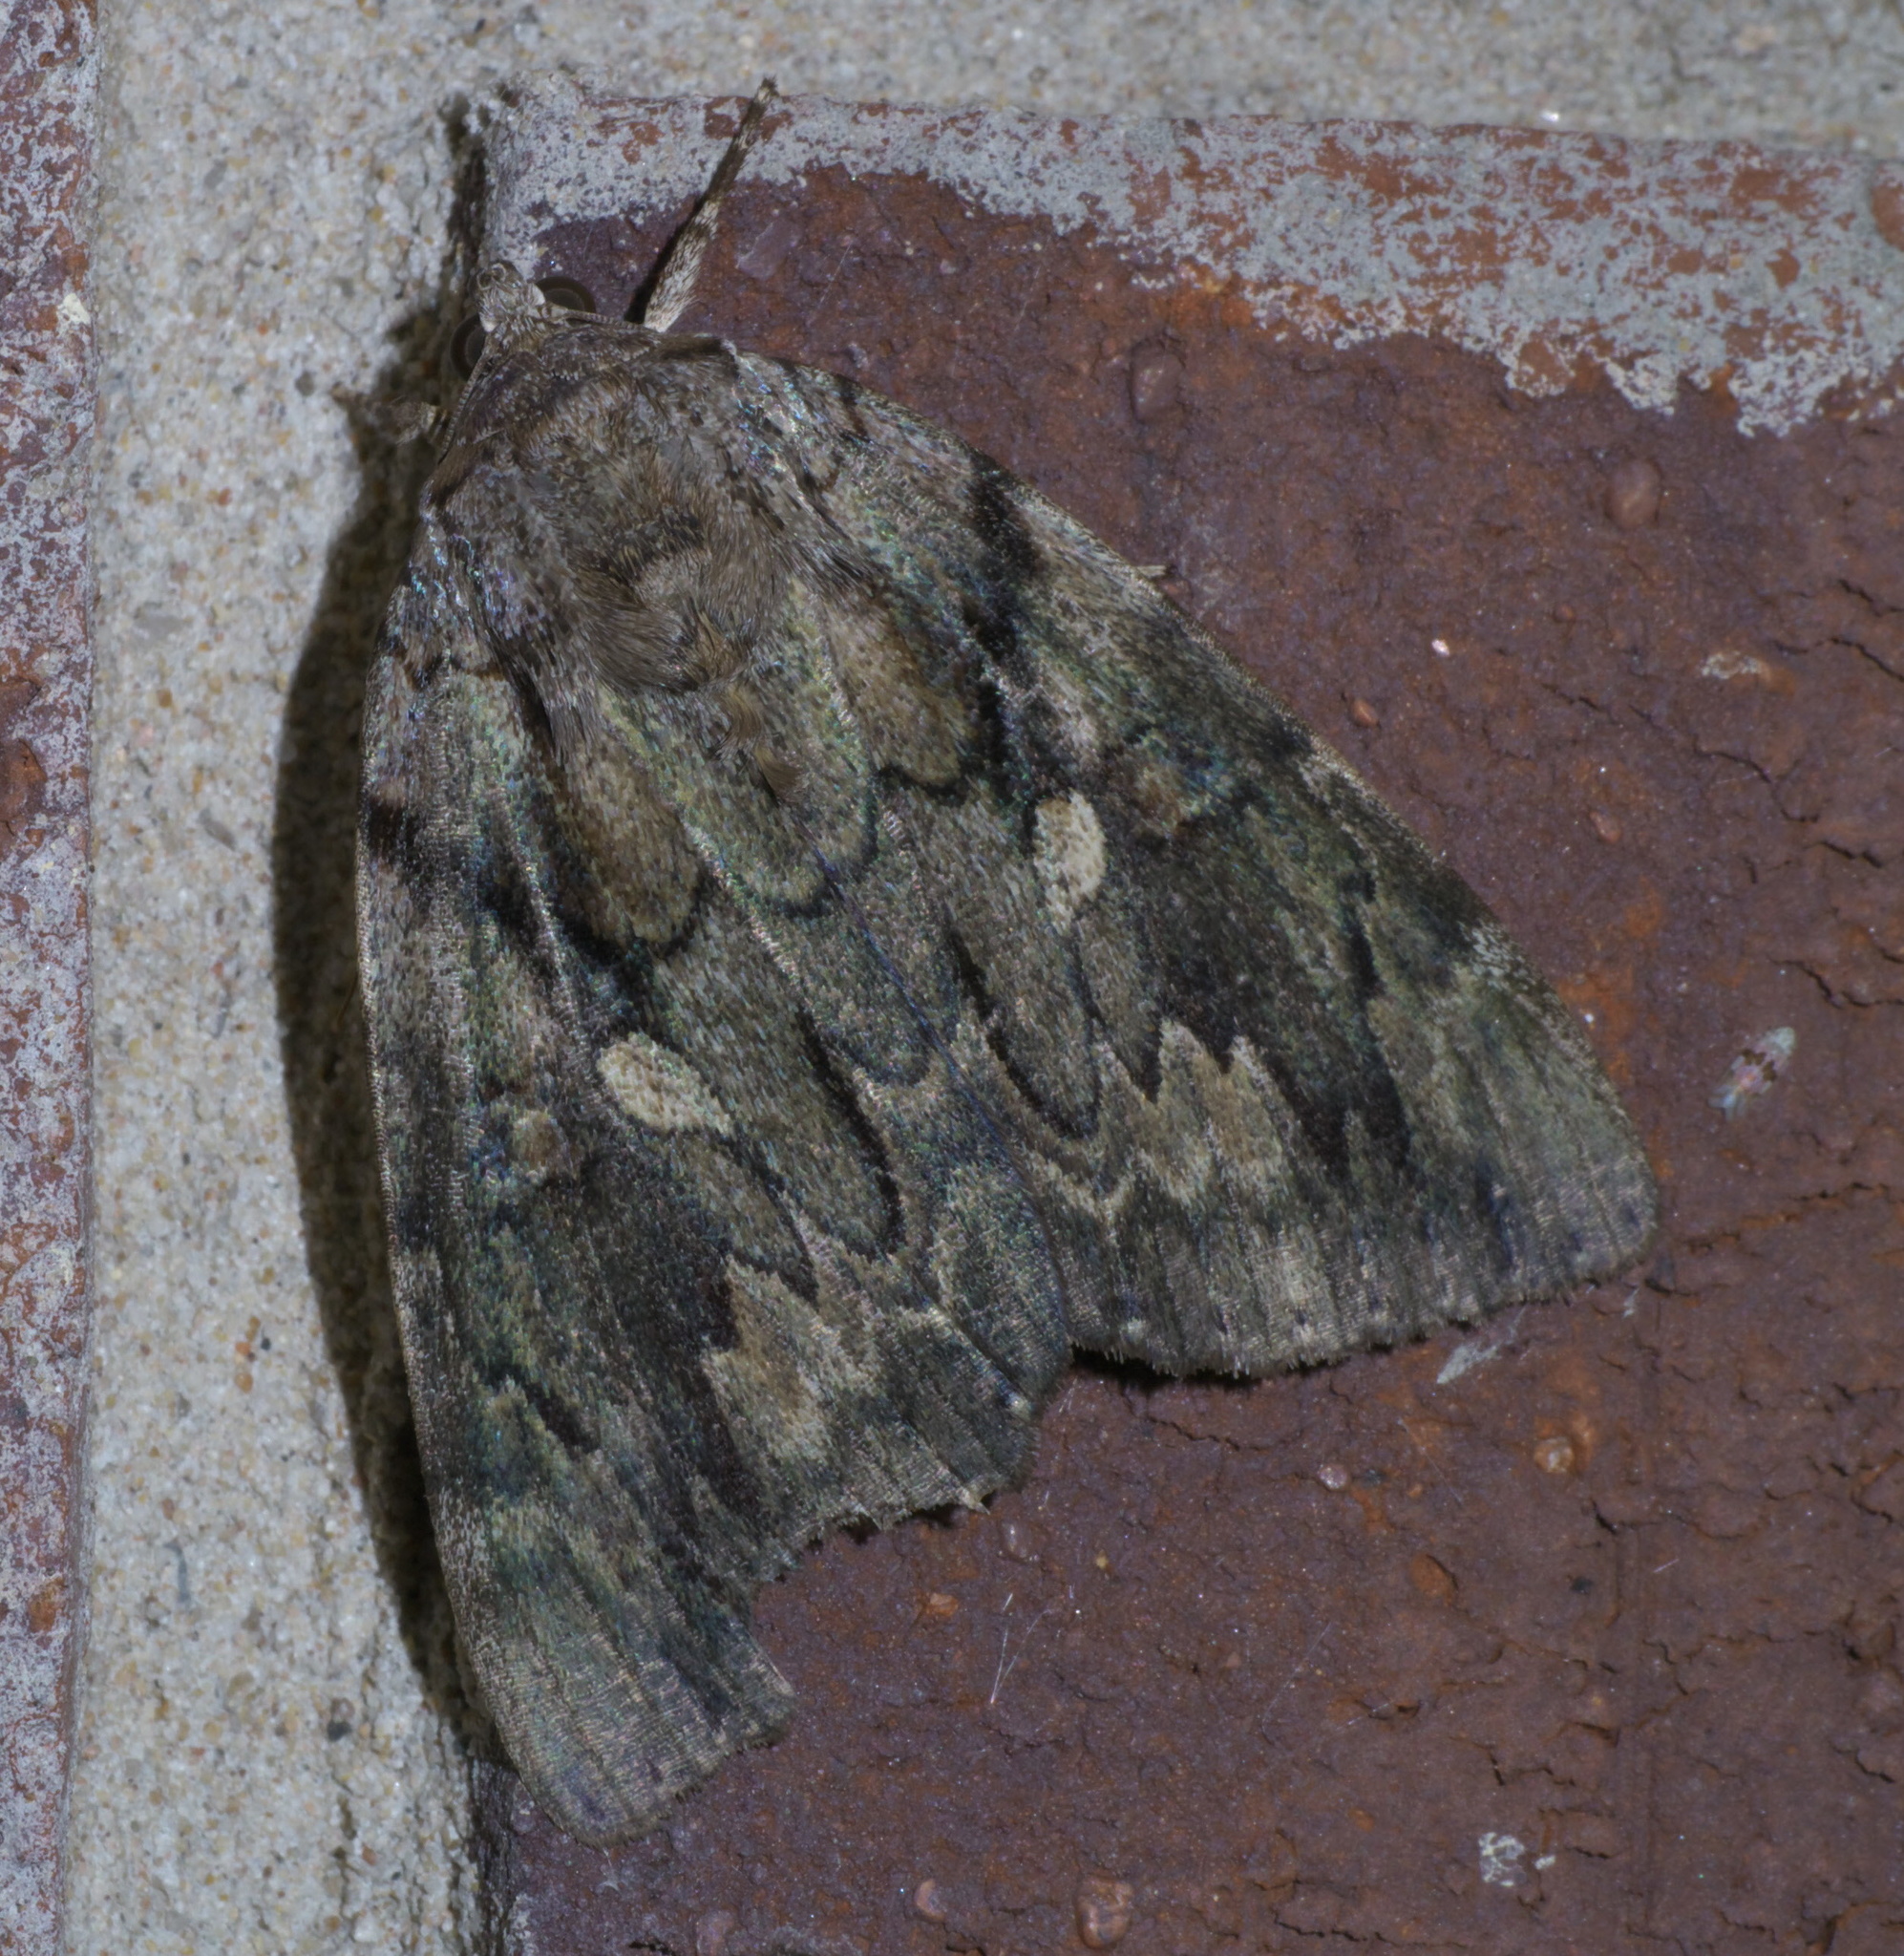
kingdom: Animalia
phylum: Arthropoda
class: Insecta
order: Lepidoptera
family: Erebidae
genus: Catocala
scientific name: Catocala agrippina
